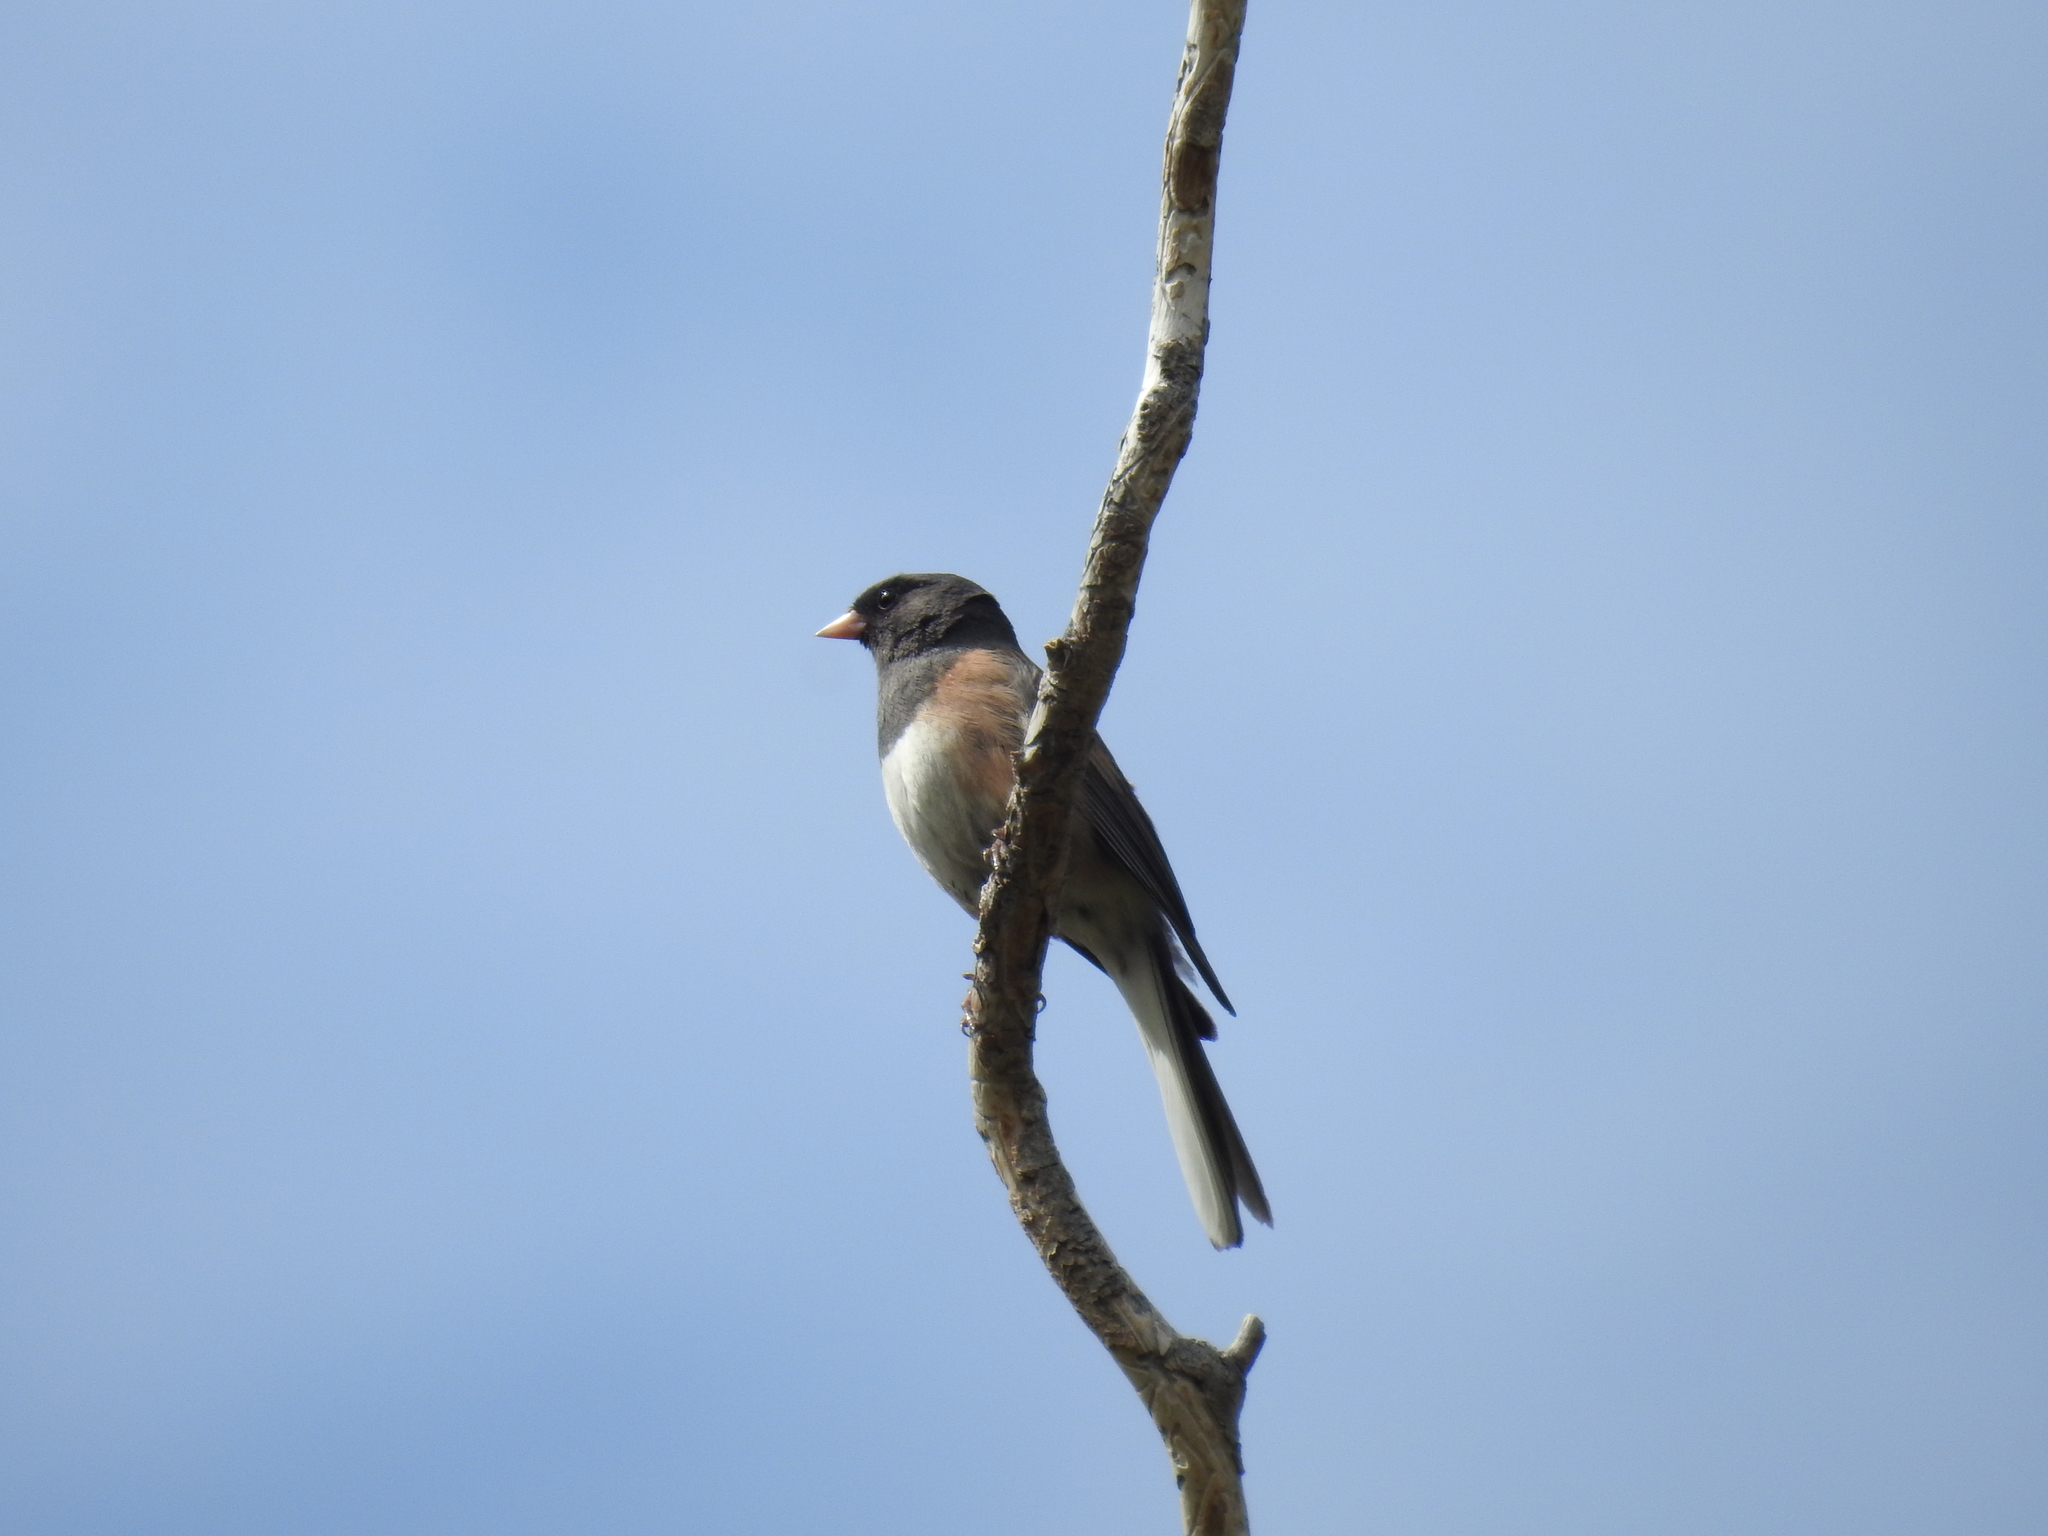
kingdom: Animalia
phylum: Chordata
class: Aves
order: Passeriformes
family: Passerellidae
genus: Junco
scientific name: Junco hyemalis
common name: Dark-eyed junco
